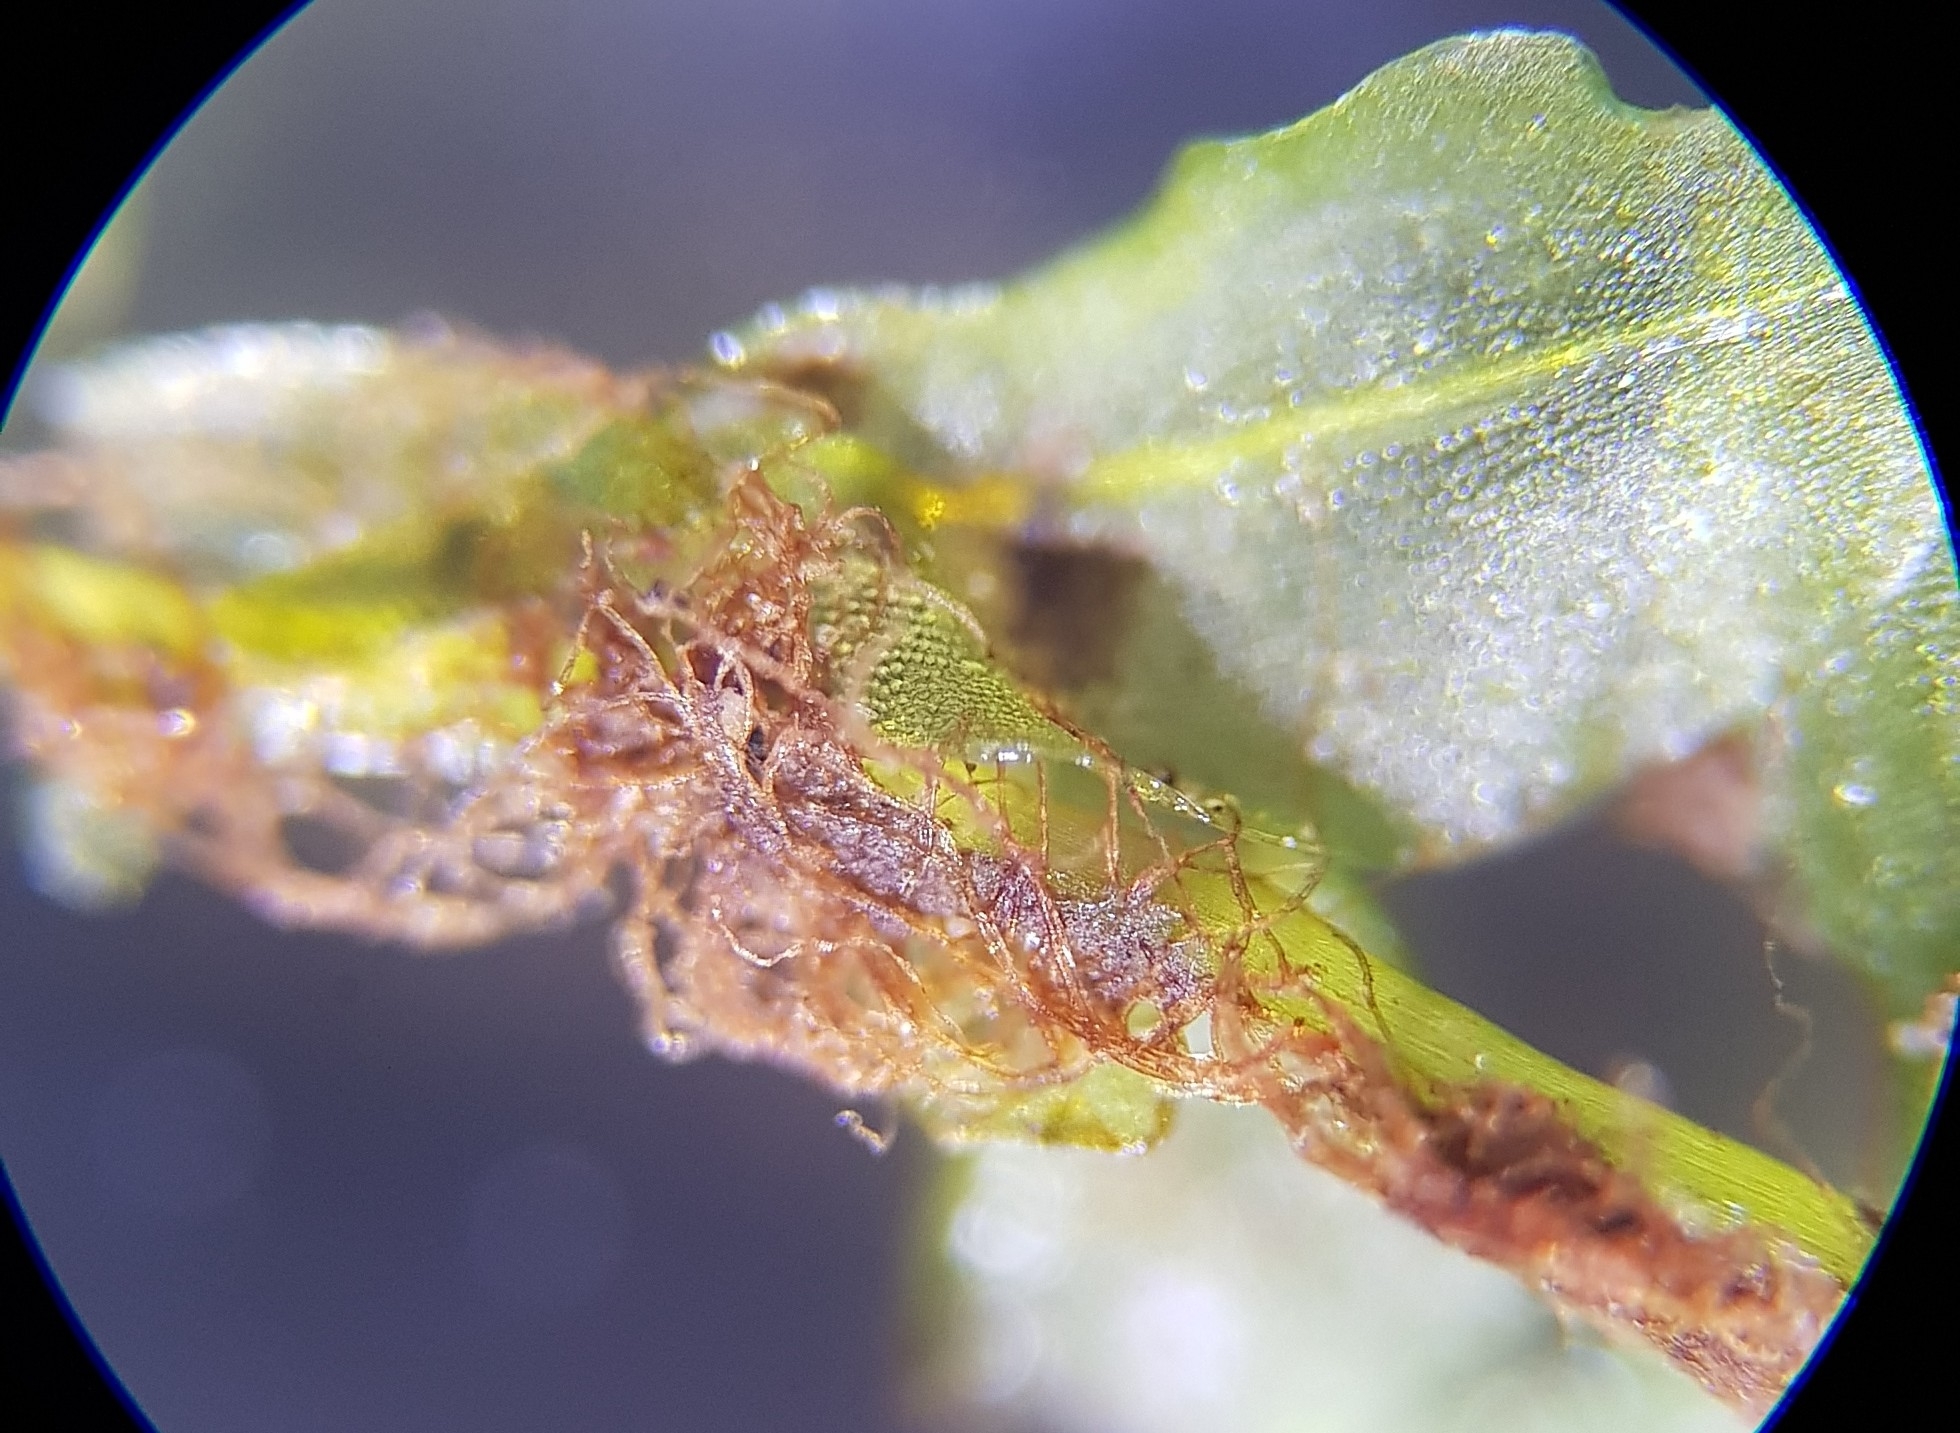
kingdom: Plantae
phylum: Bryophyta
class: Bryopsida
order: Bryales
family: Mniaceae
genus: Rhizomnium
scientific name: Rhizomnium punctatum
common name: Dotted leafy moss
